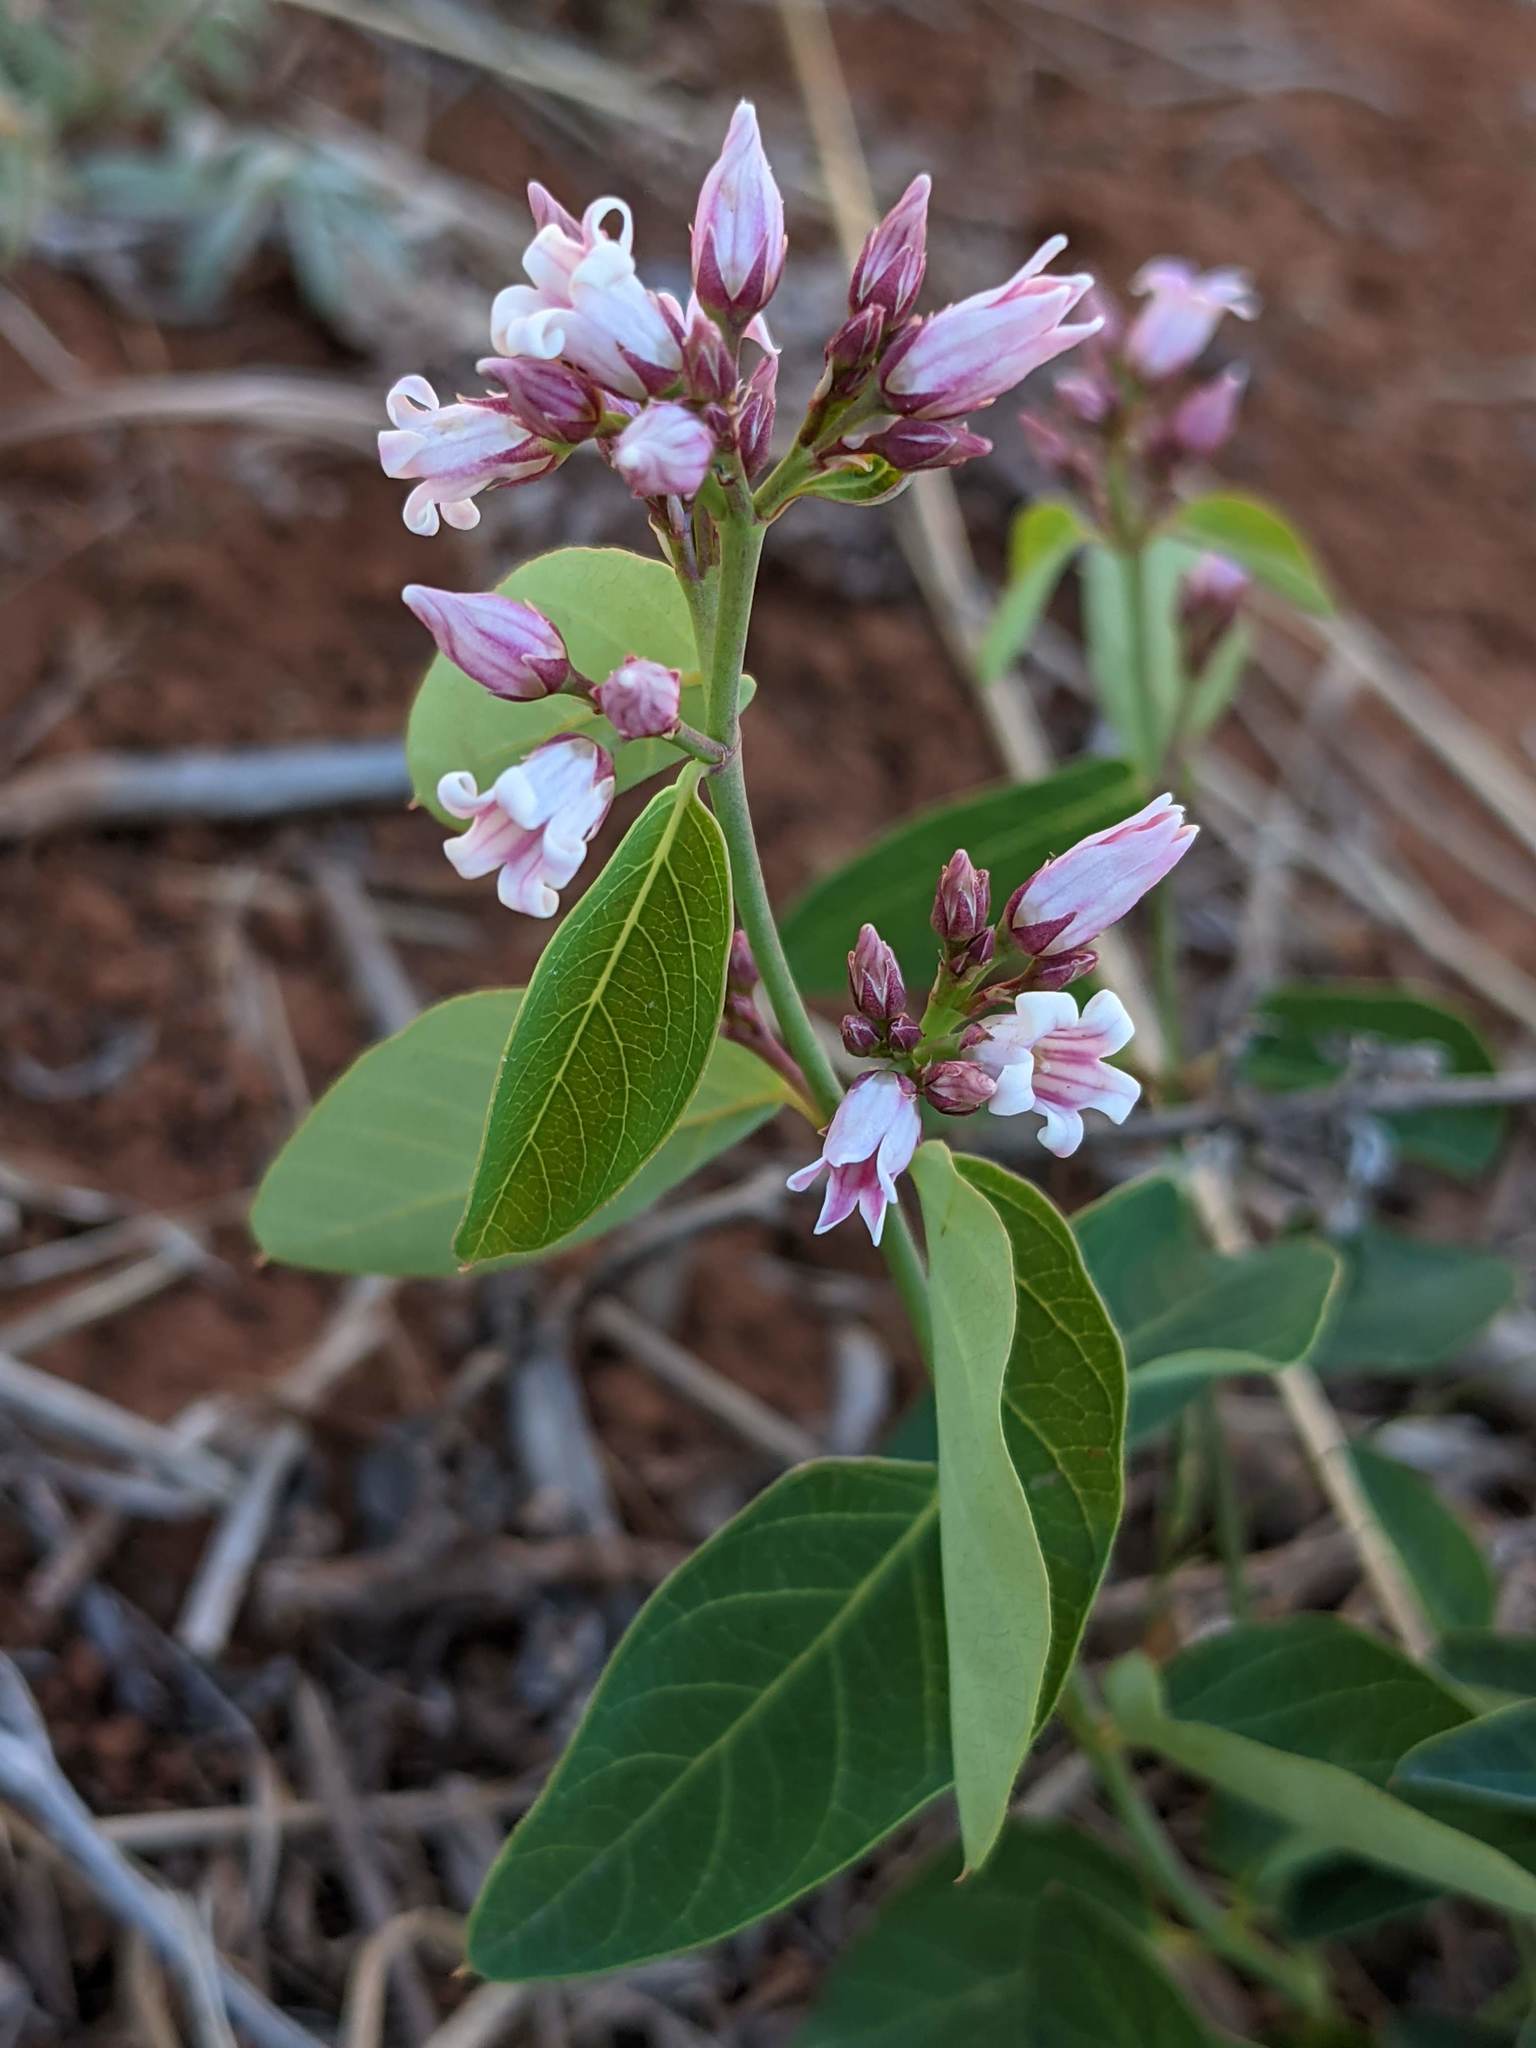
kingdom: Plantae
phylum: Tracheophyta
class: Magnoliopsida
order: Gentianales
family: Apocynaceae
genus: Apocynum
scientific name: Apocynum androsaemifolium
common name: Spreading dogbane
